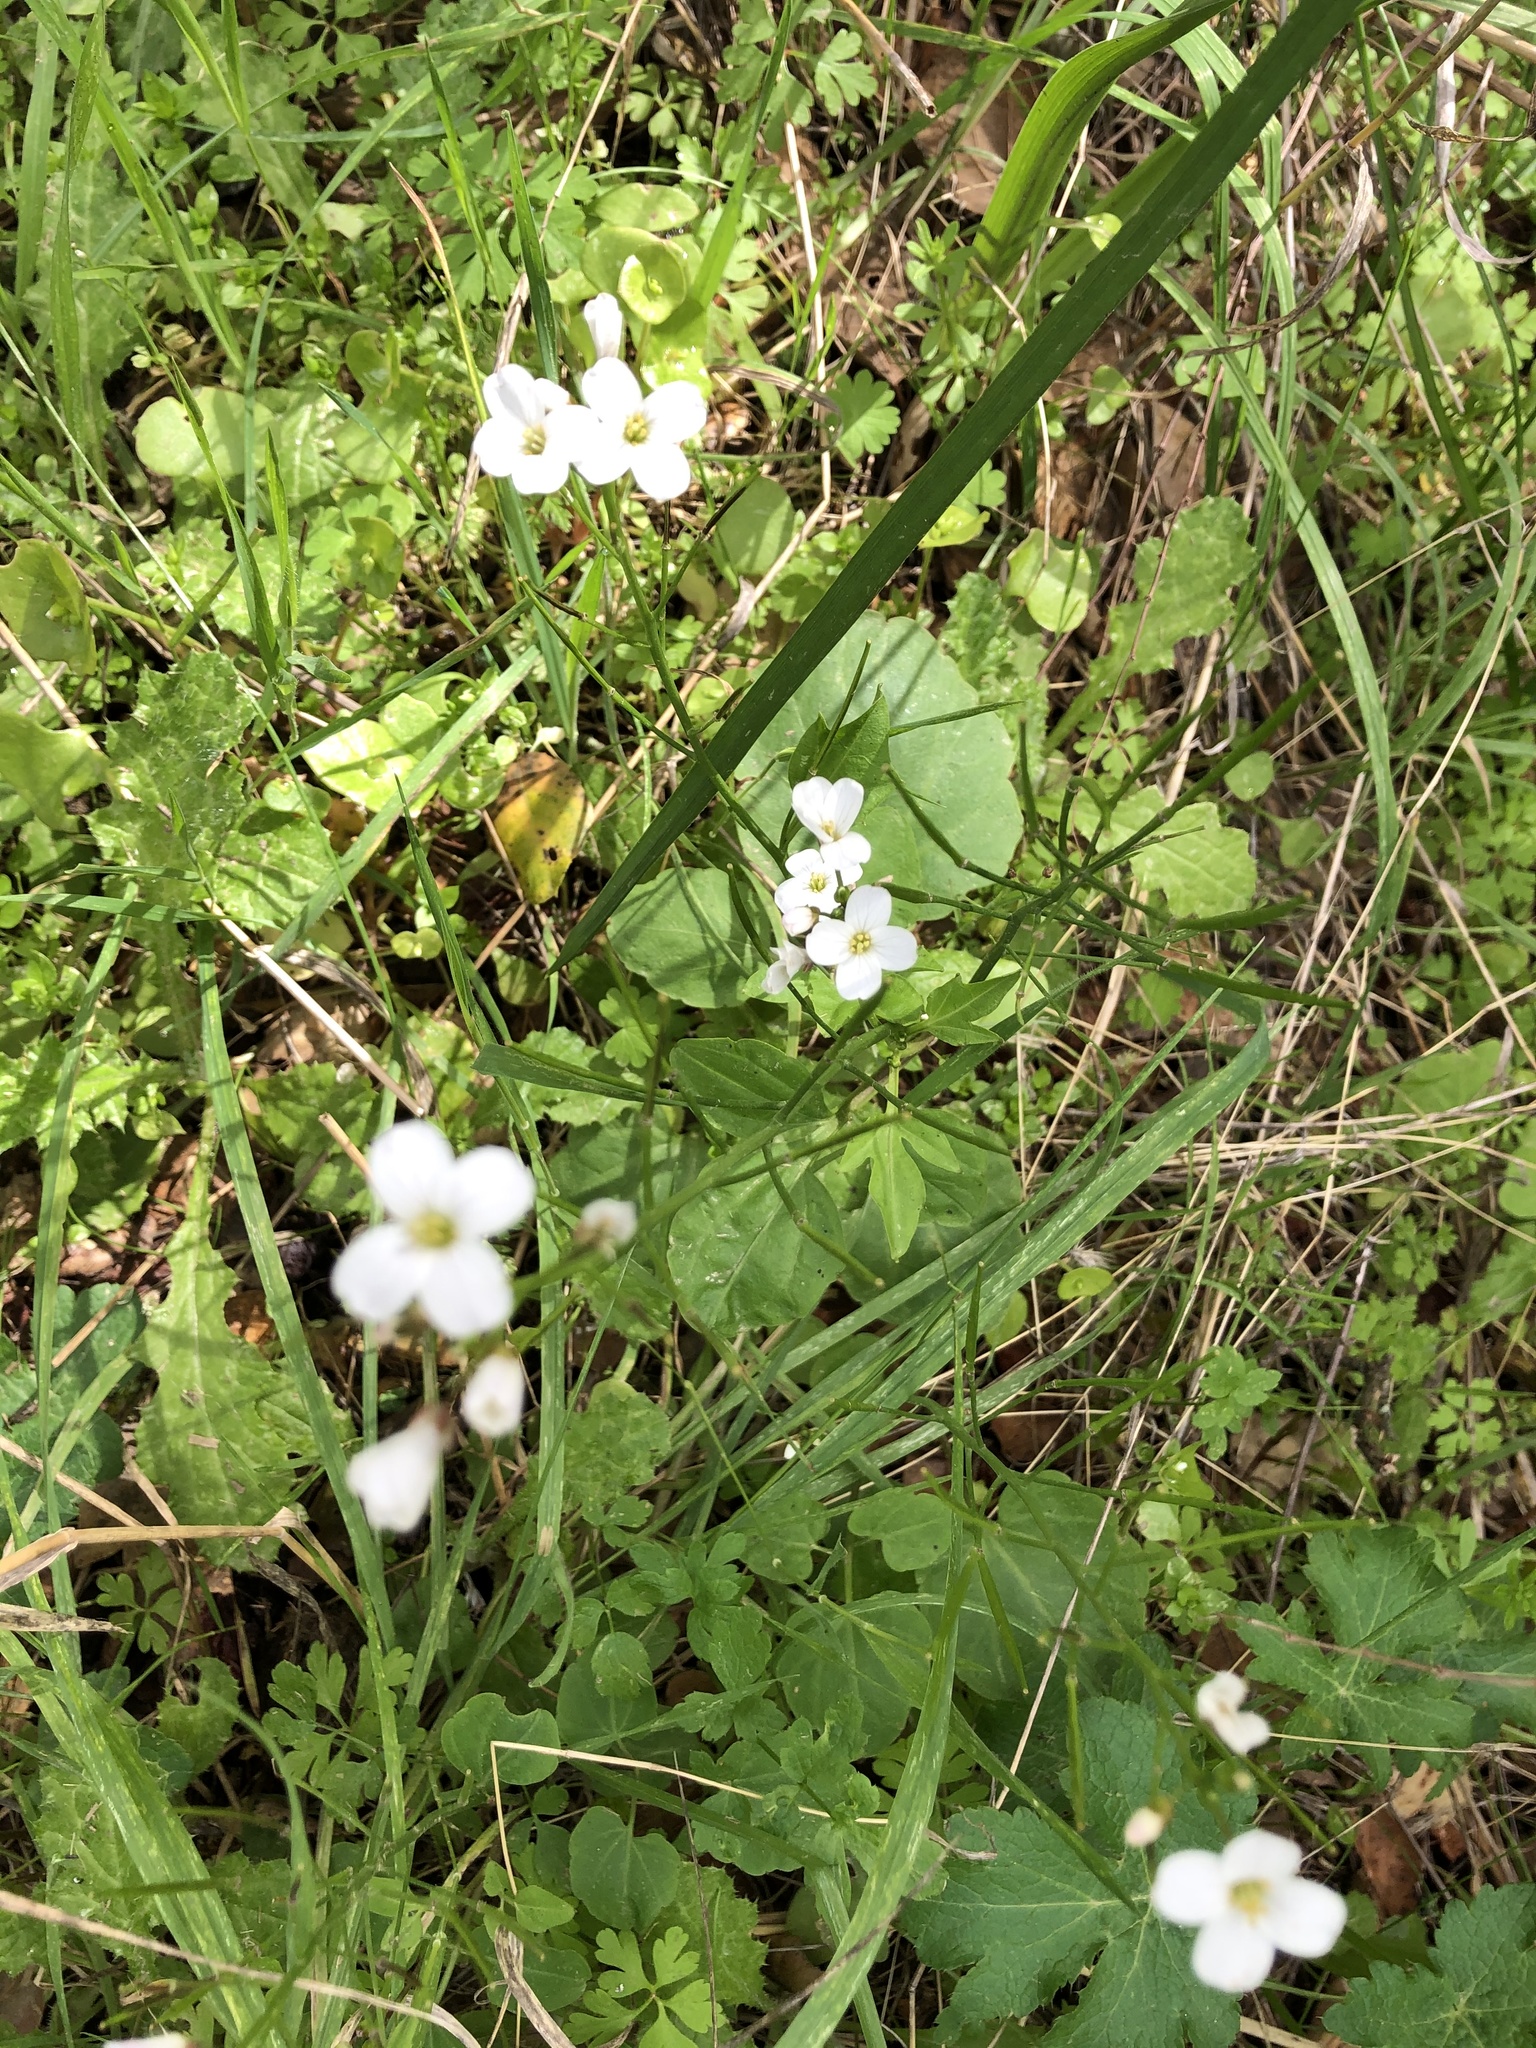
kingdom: Plantae
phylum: Tracheophyta
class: Magnoliopsida
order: Brassicales
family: Brassicaceae
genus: Cardamine
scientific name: Cardamine californica
